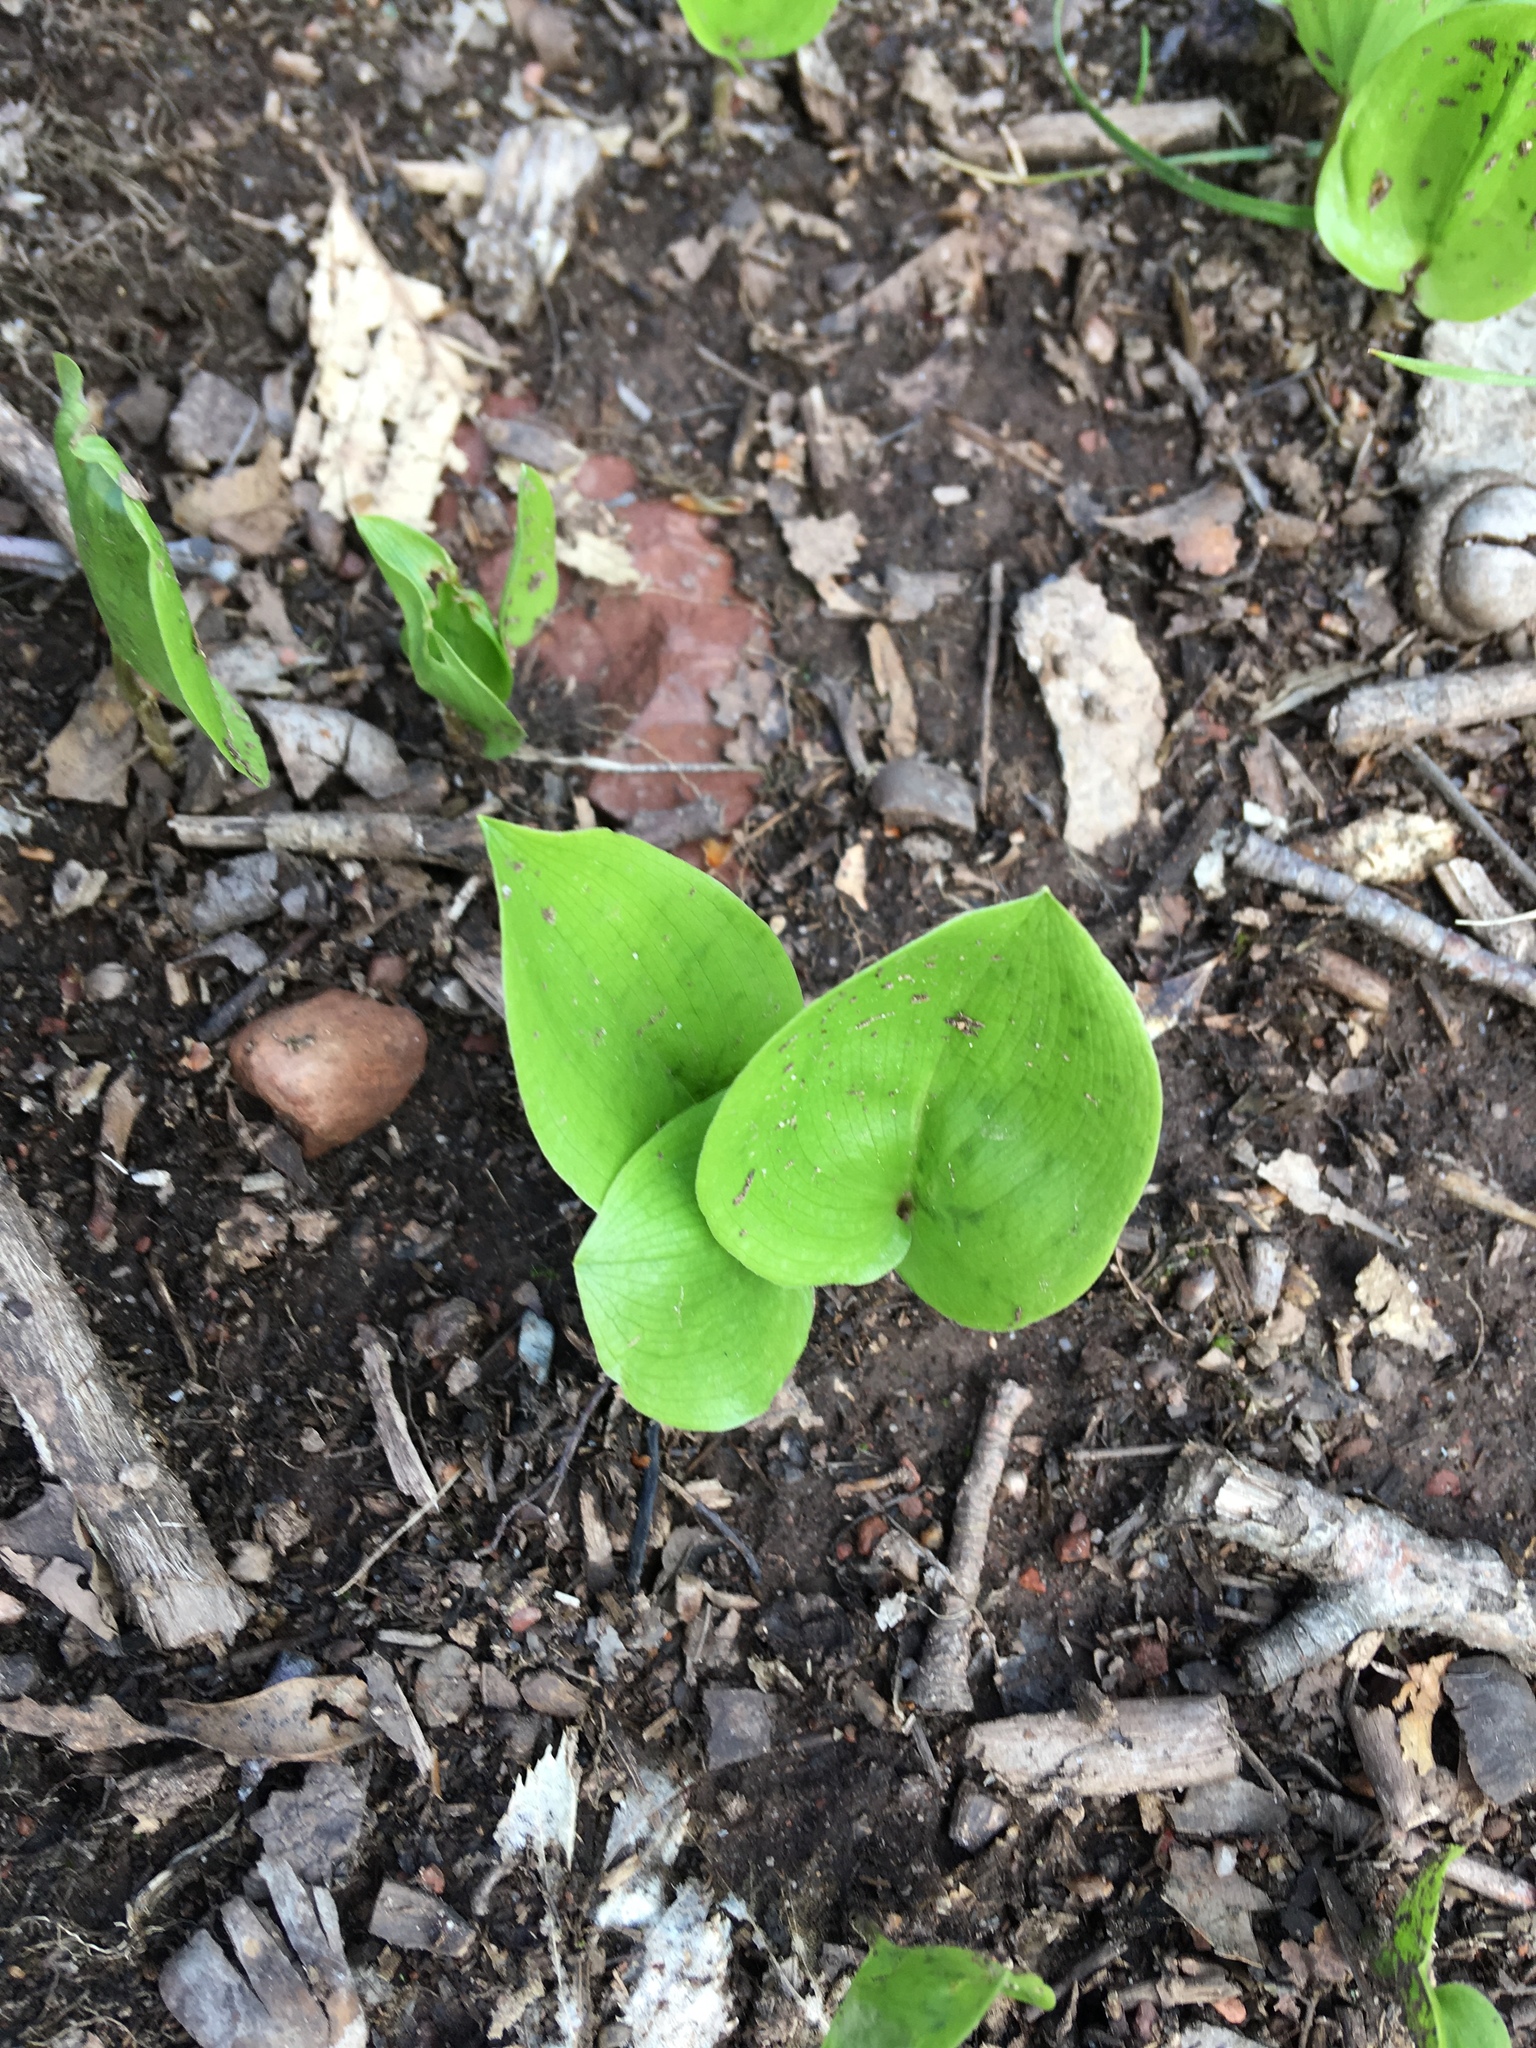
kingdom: Plantae
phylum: Tracheophyta
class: Liliopsida
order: Asparagales
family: Asparagaceae
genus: Maianthemum
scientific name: Maianthemum canadense
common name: False lily-of-the-valley
